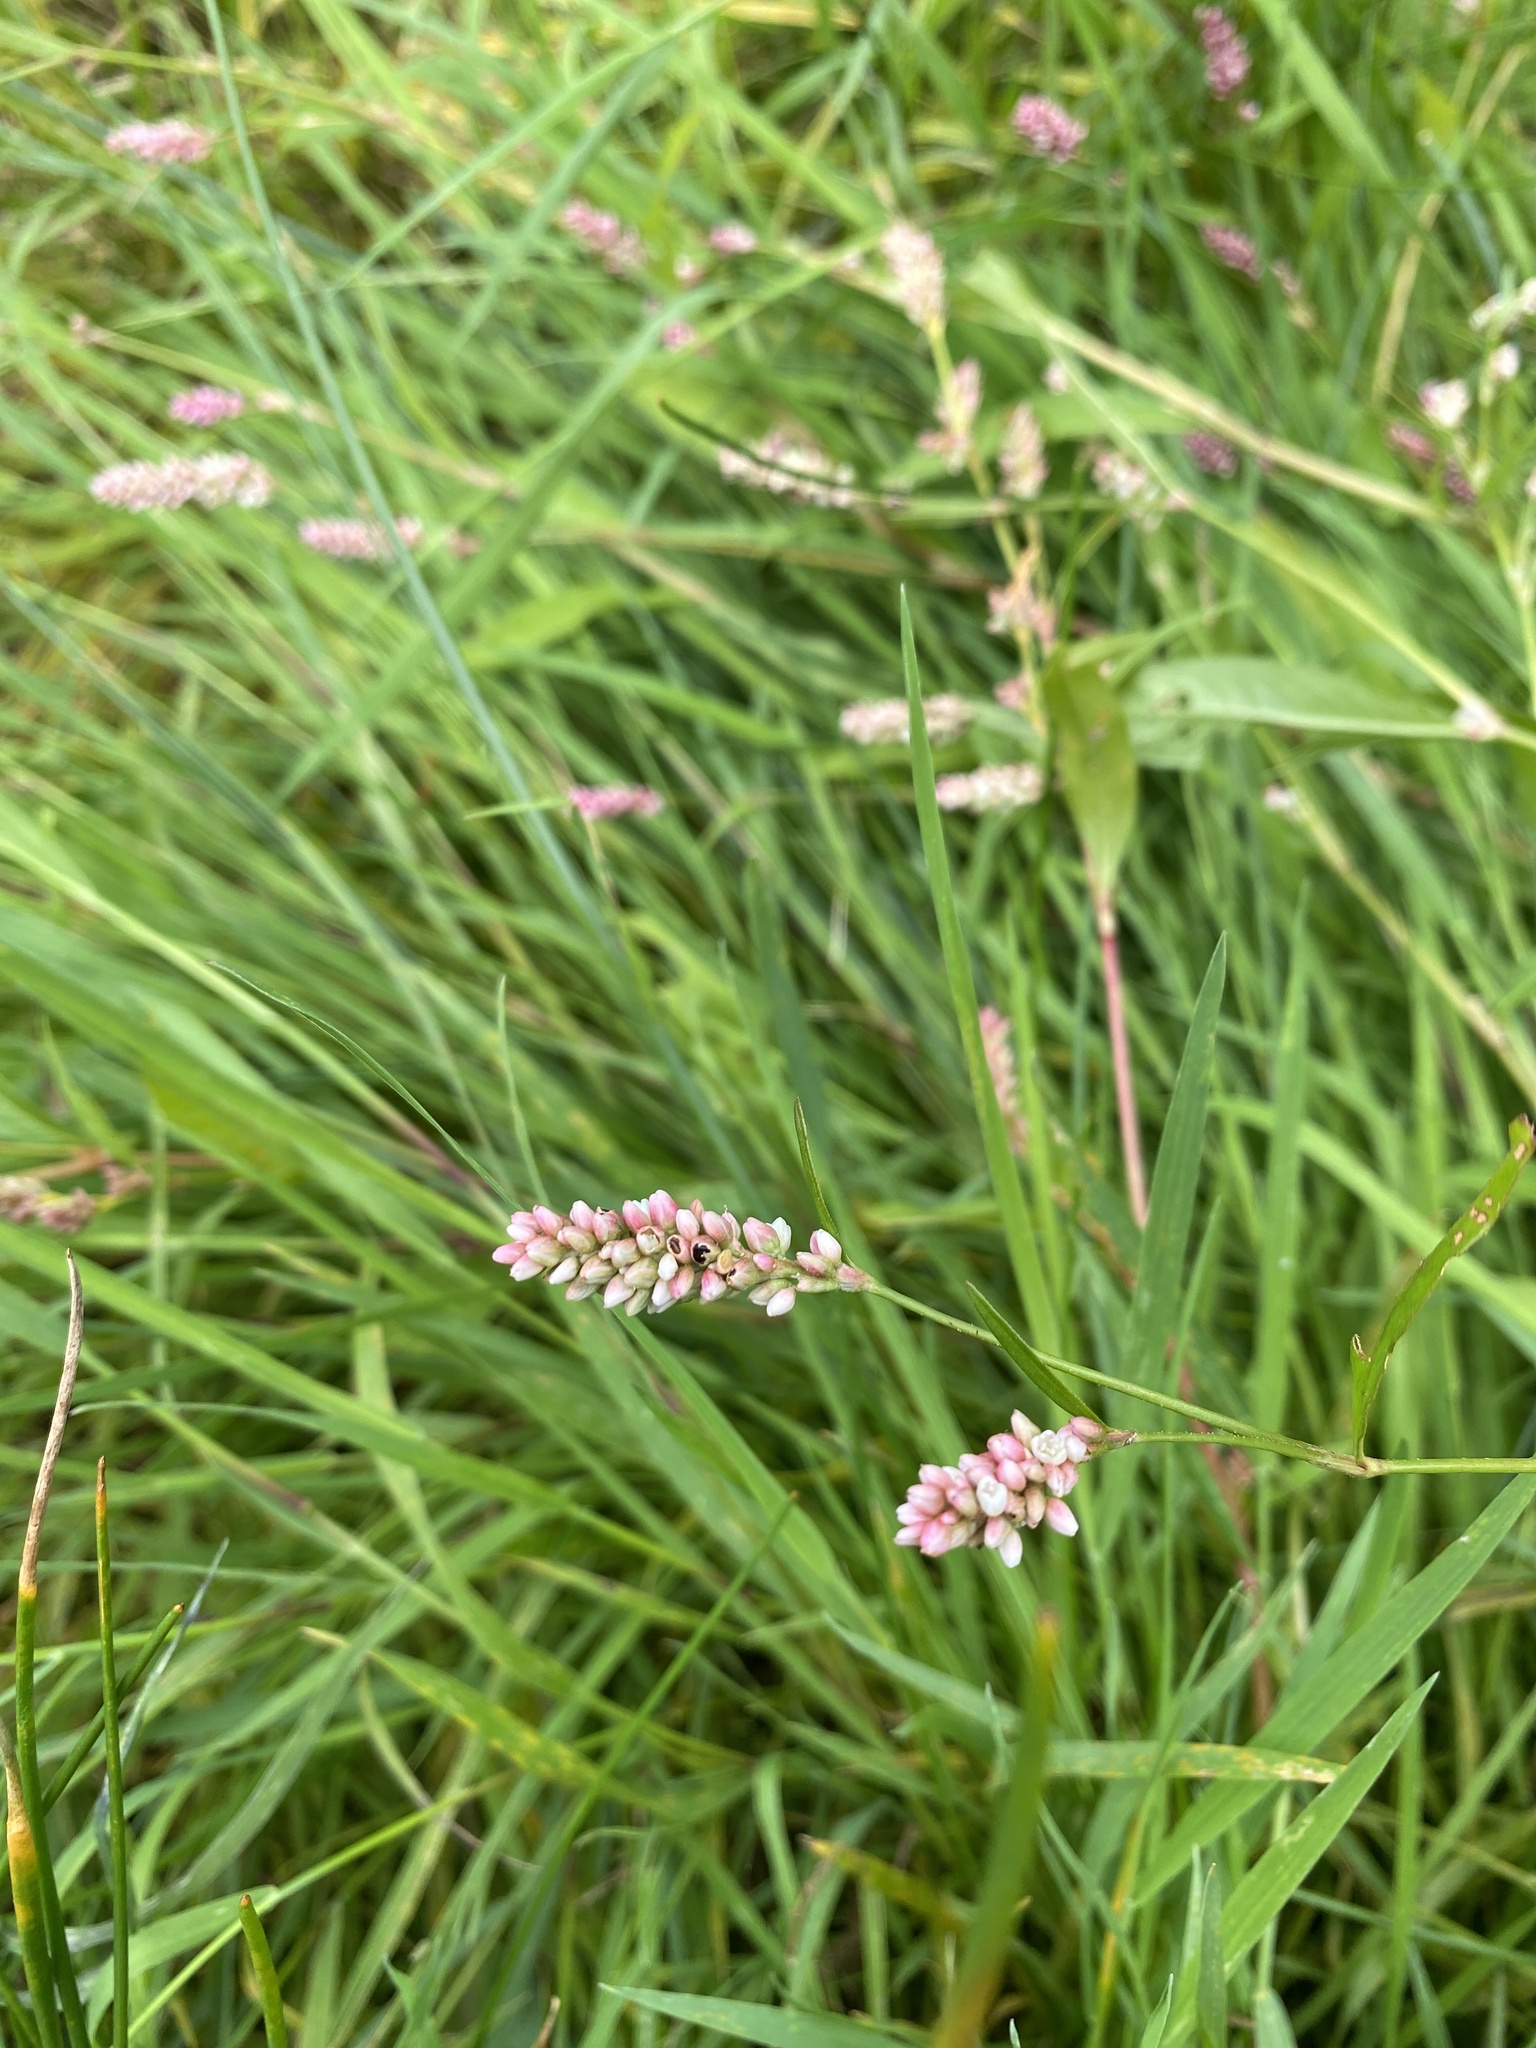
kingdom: Plantae
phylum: Tracheophyta
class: Magnoliopsida
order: Caryophyllales
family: Polygonaceae
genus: Persicaria
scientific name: Persicaria maculosa
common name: Redshank
